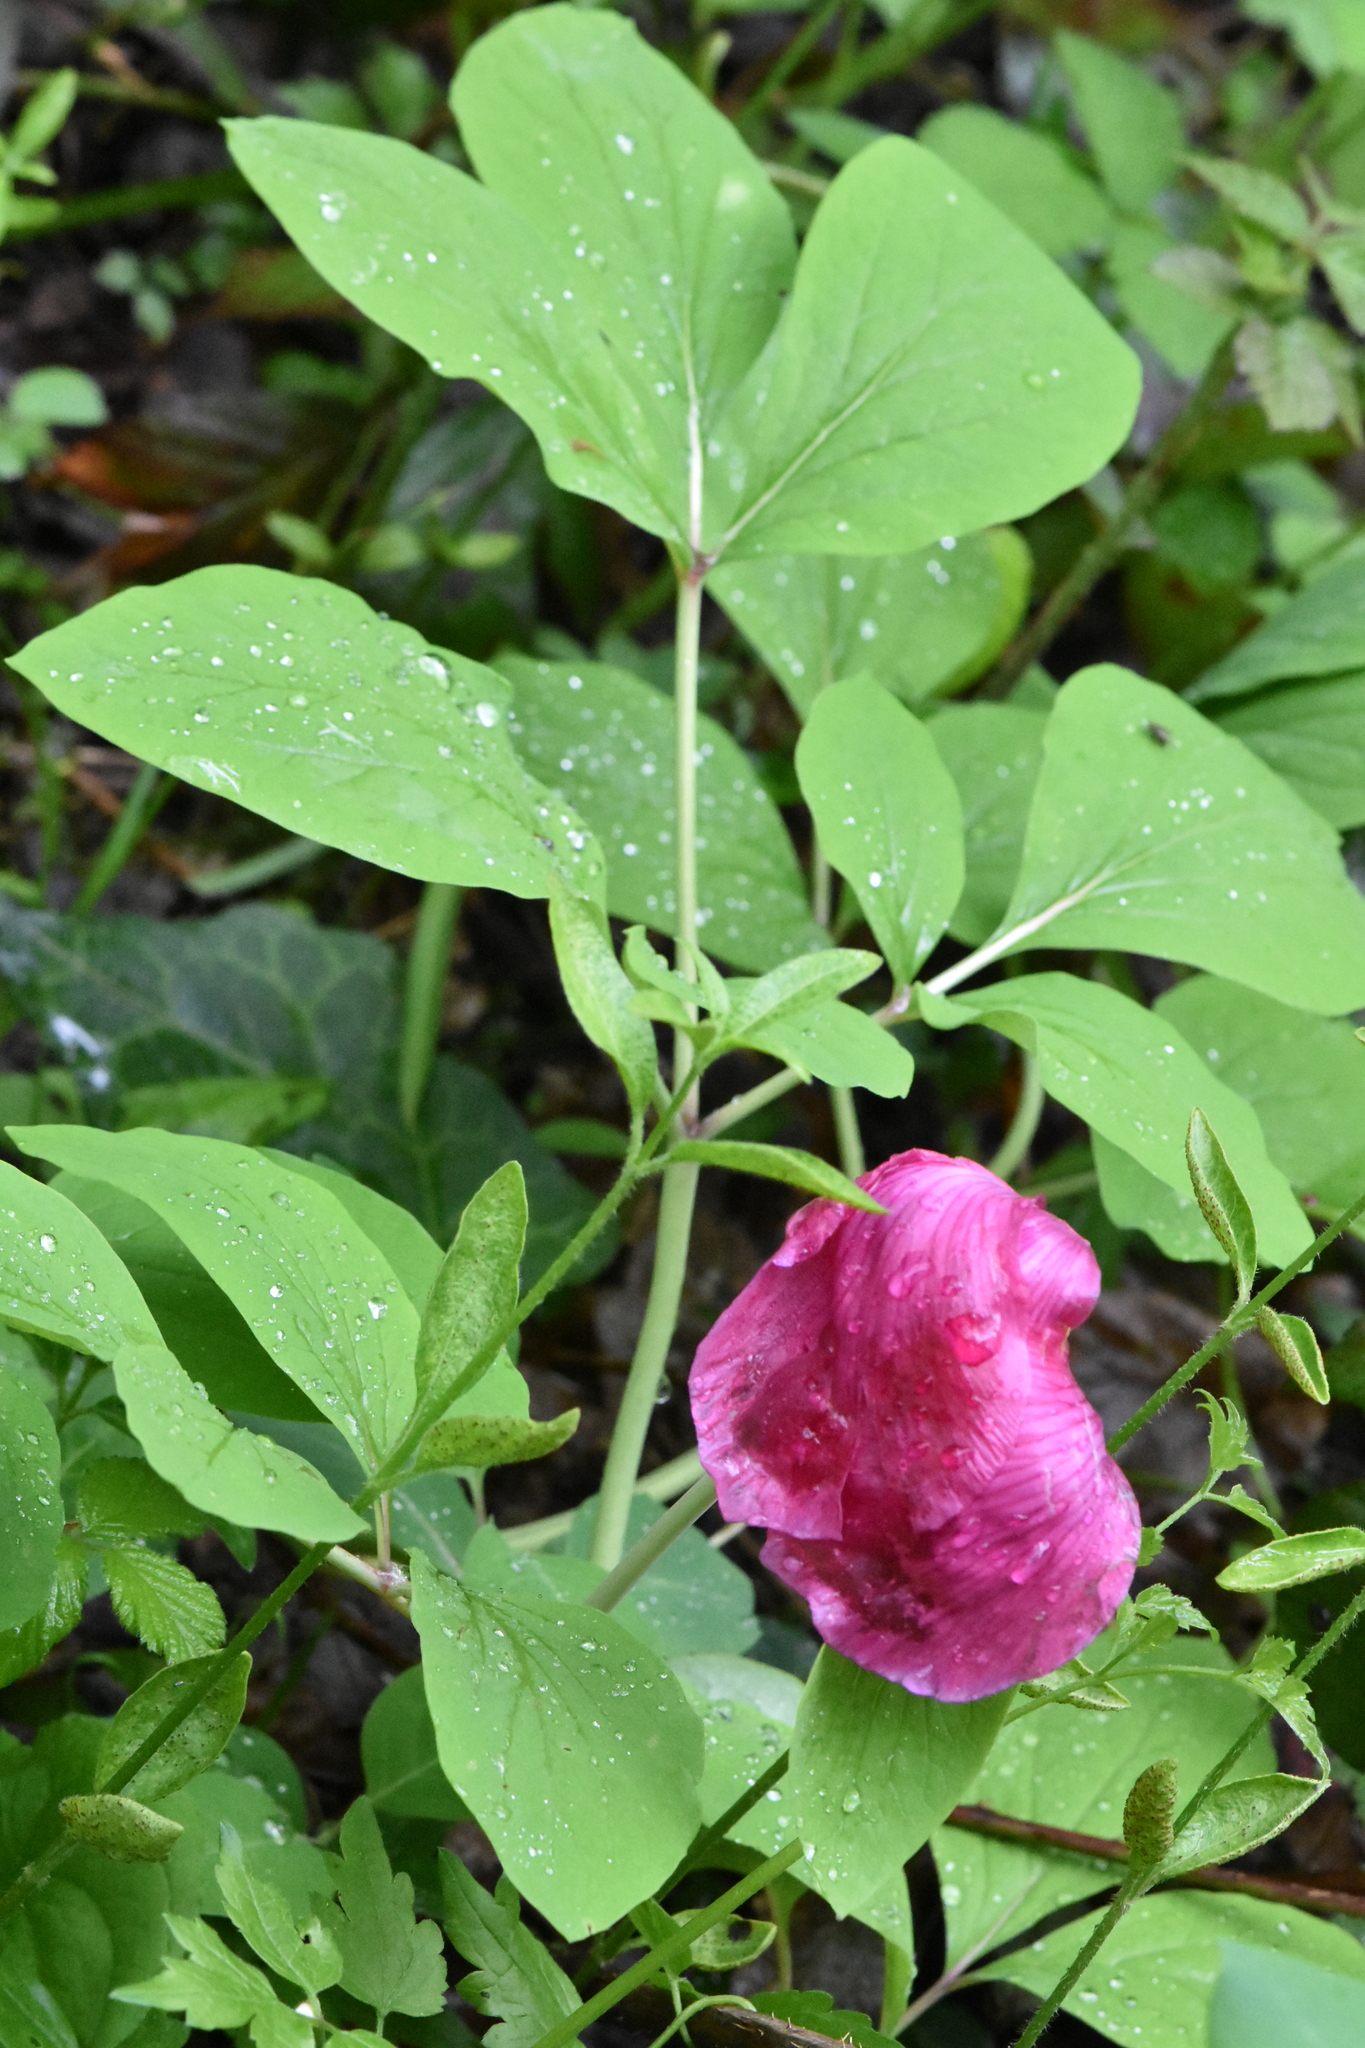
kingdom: Plantae
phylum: Tracheophyta
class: Magnoliopsida
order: Saxifragales
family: Paeoniaceae
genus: Paeonia
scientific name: Paeonia caucasica
